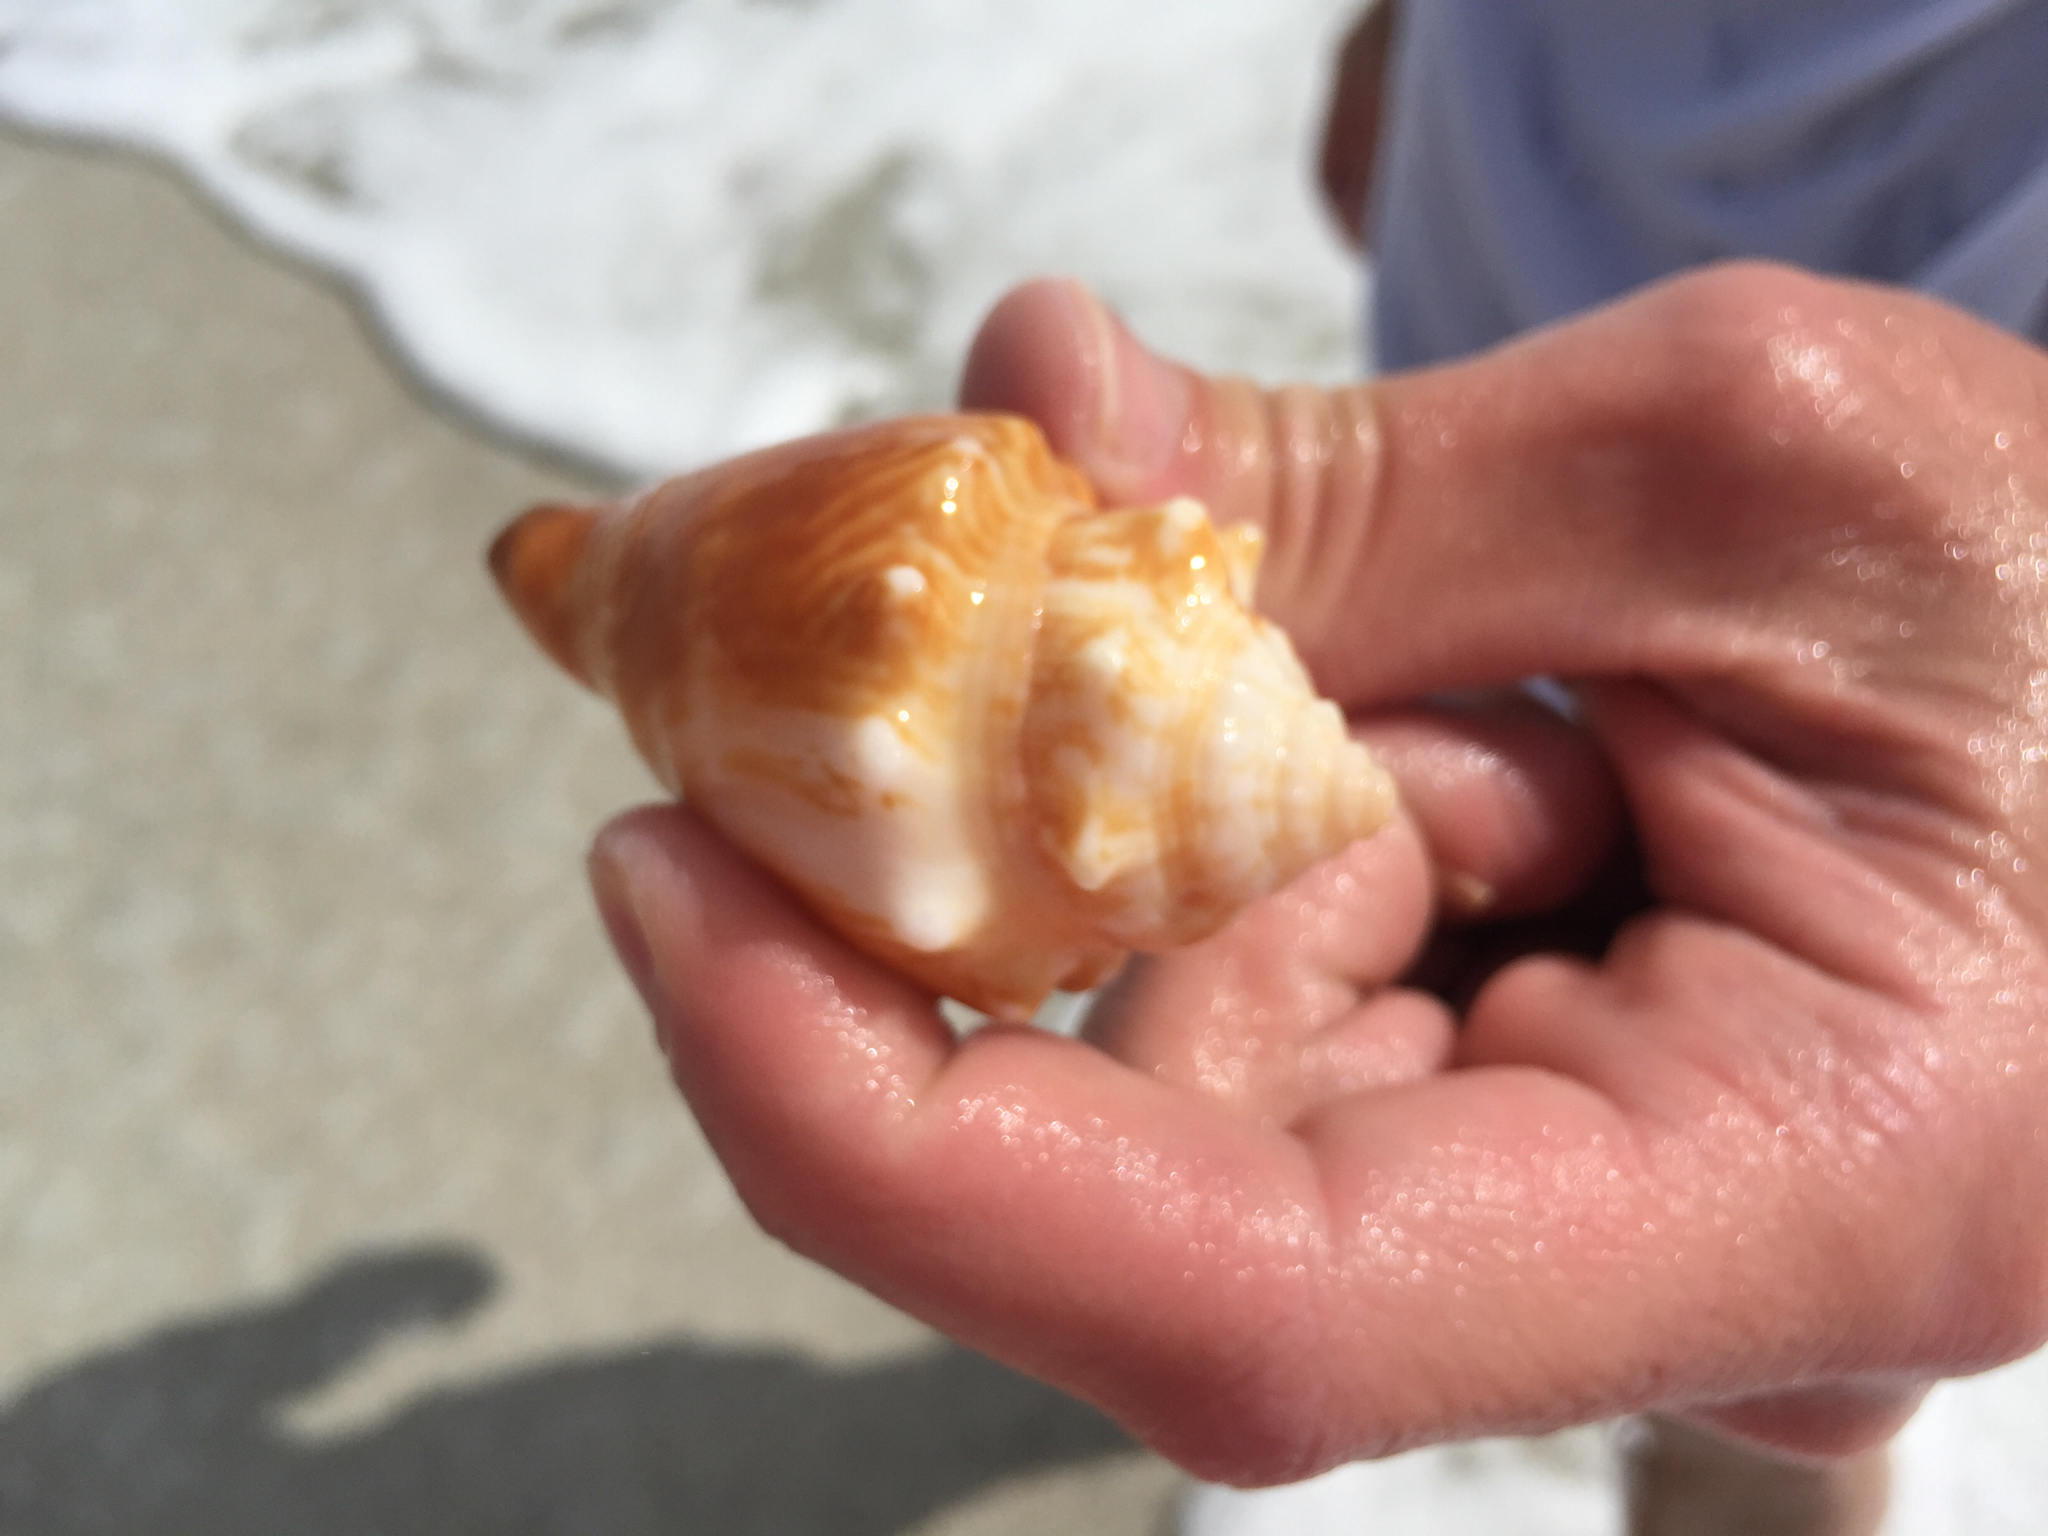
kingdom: Animalia
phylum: Mollusca
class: Gastropoda
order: Littorinimorpha
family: Strombidae
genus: Strombus
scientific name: Strombus alatus
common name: Florida fighting conch
